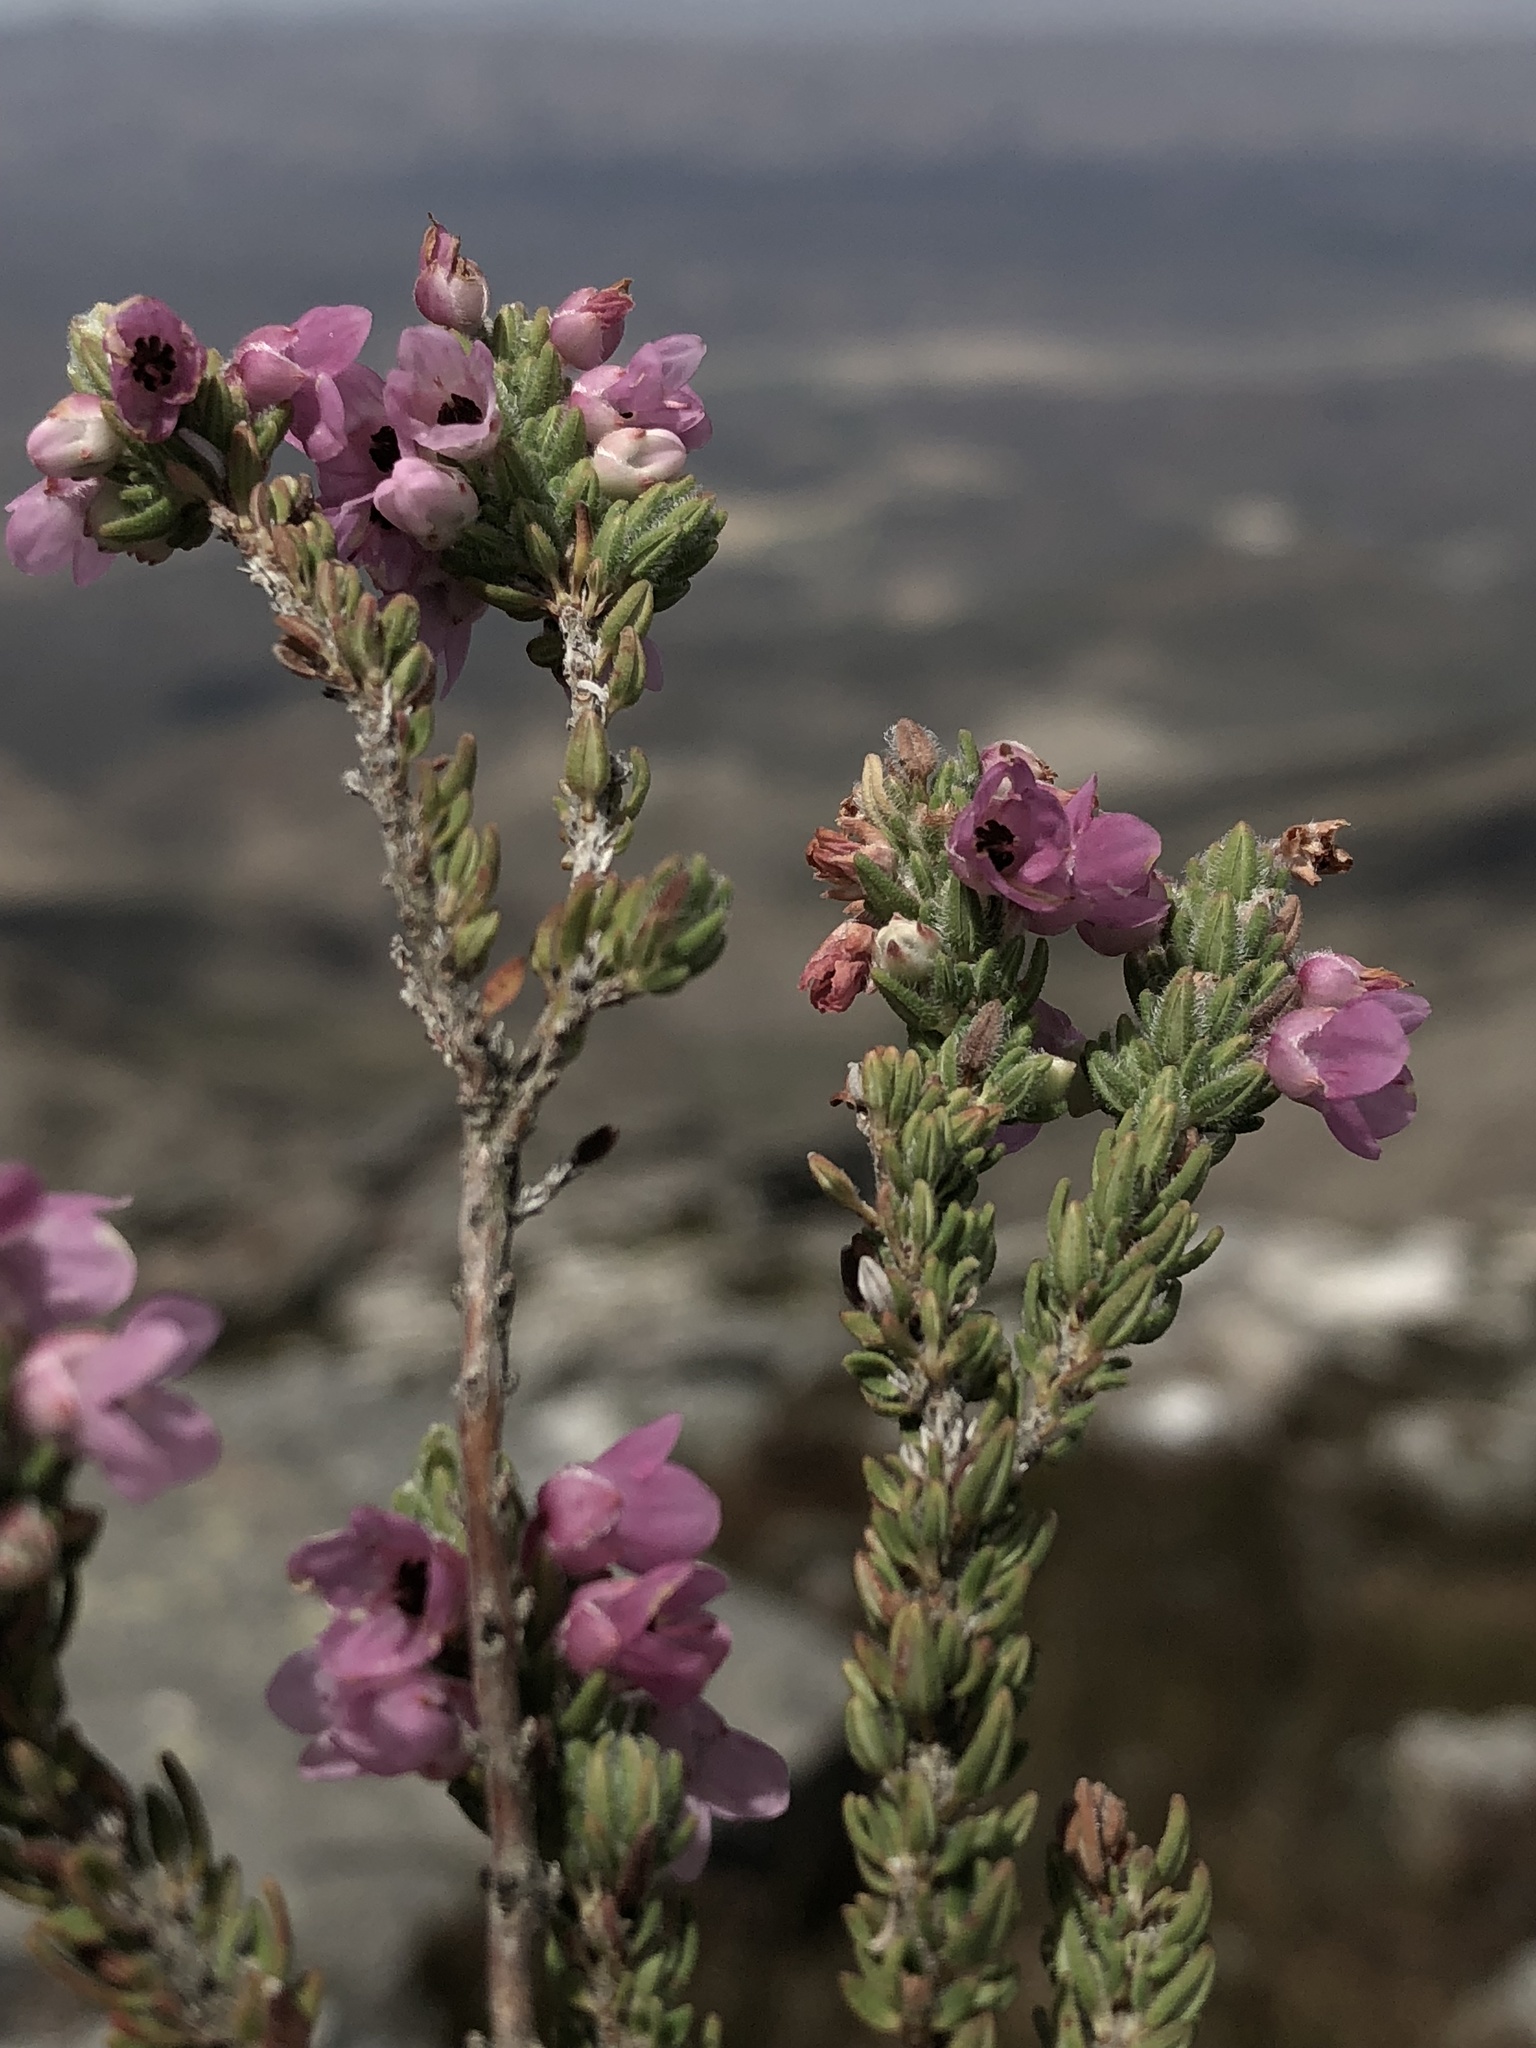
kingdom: Plantae
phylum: Tracheophyta
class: Magnoliopsida
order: Ericales
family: Ericaceae
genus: Erica
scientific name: Erica nervata
